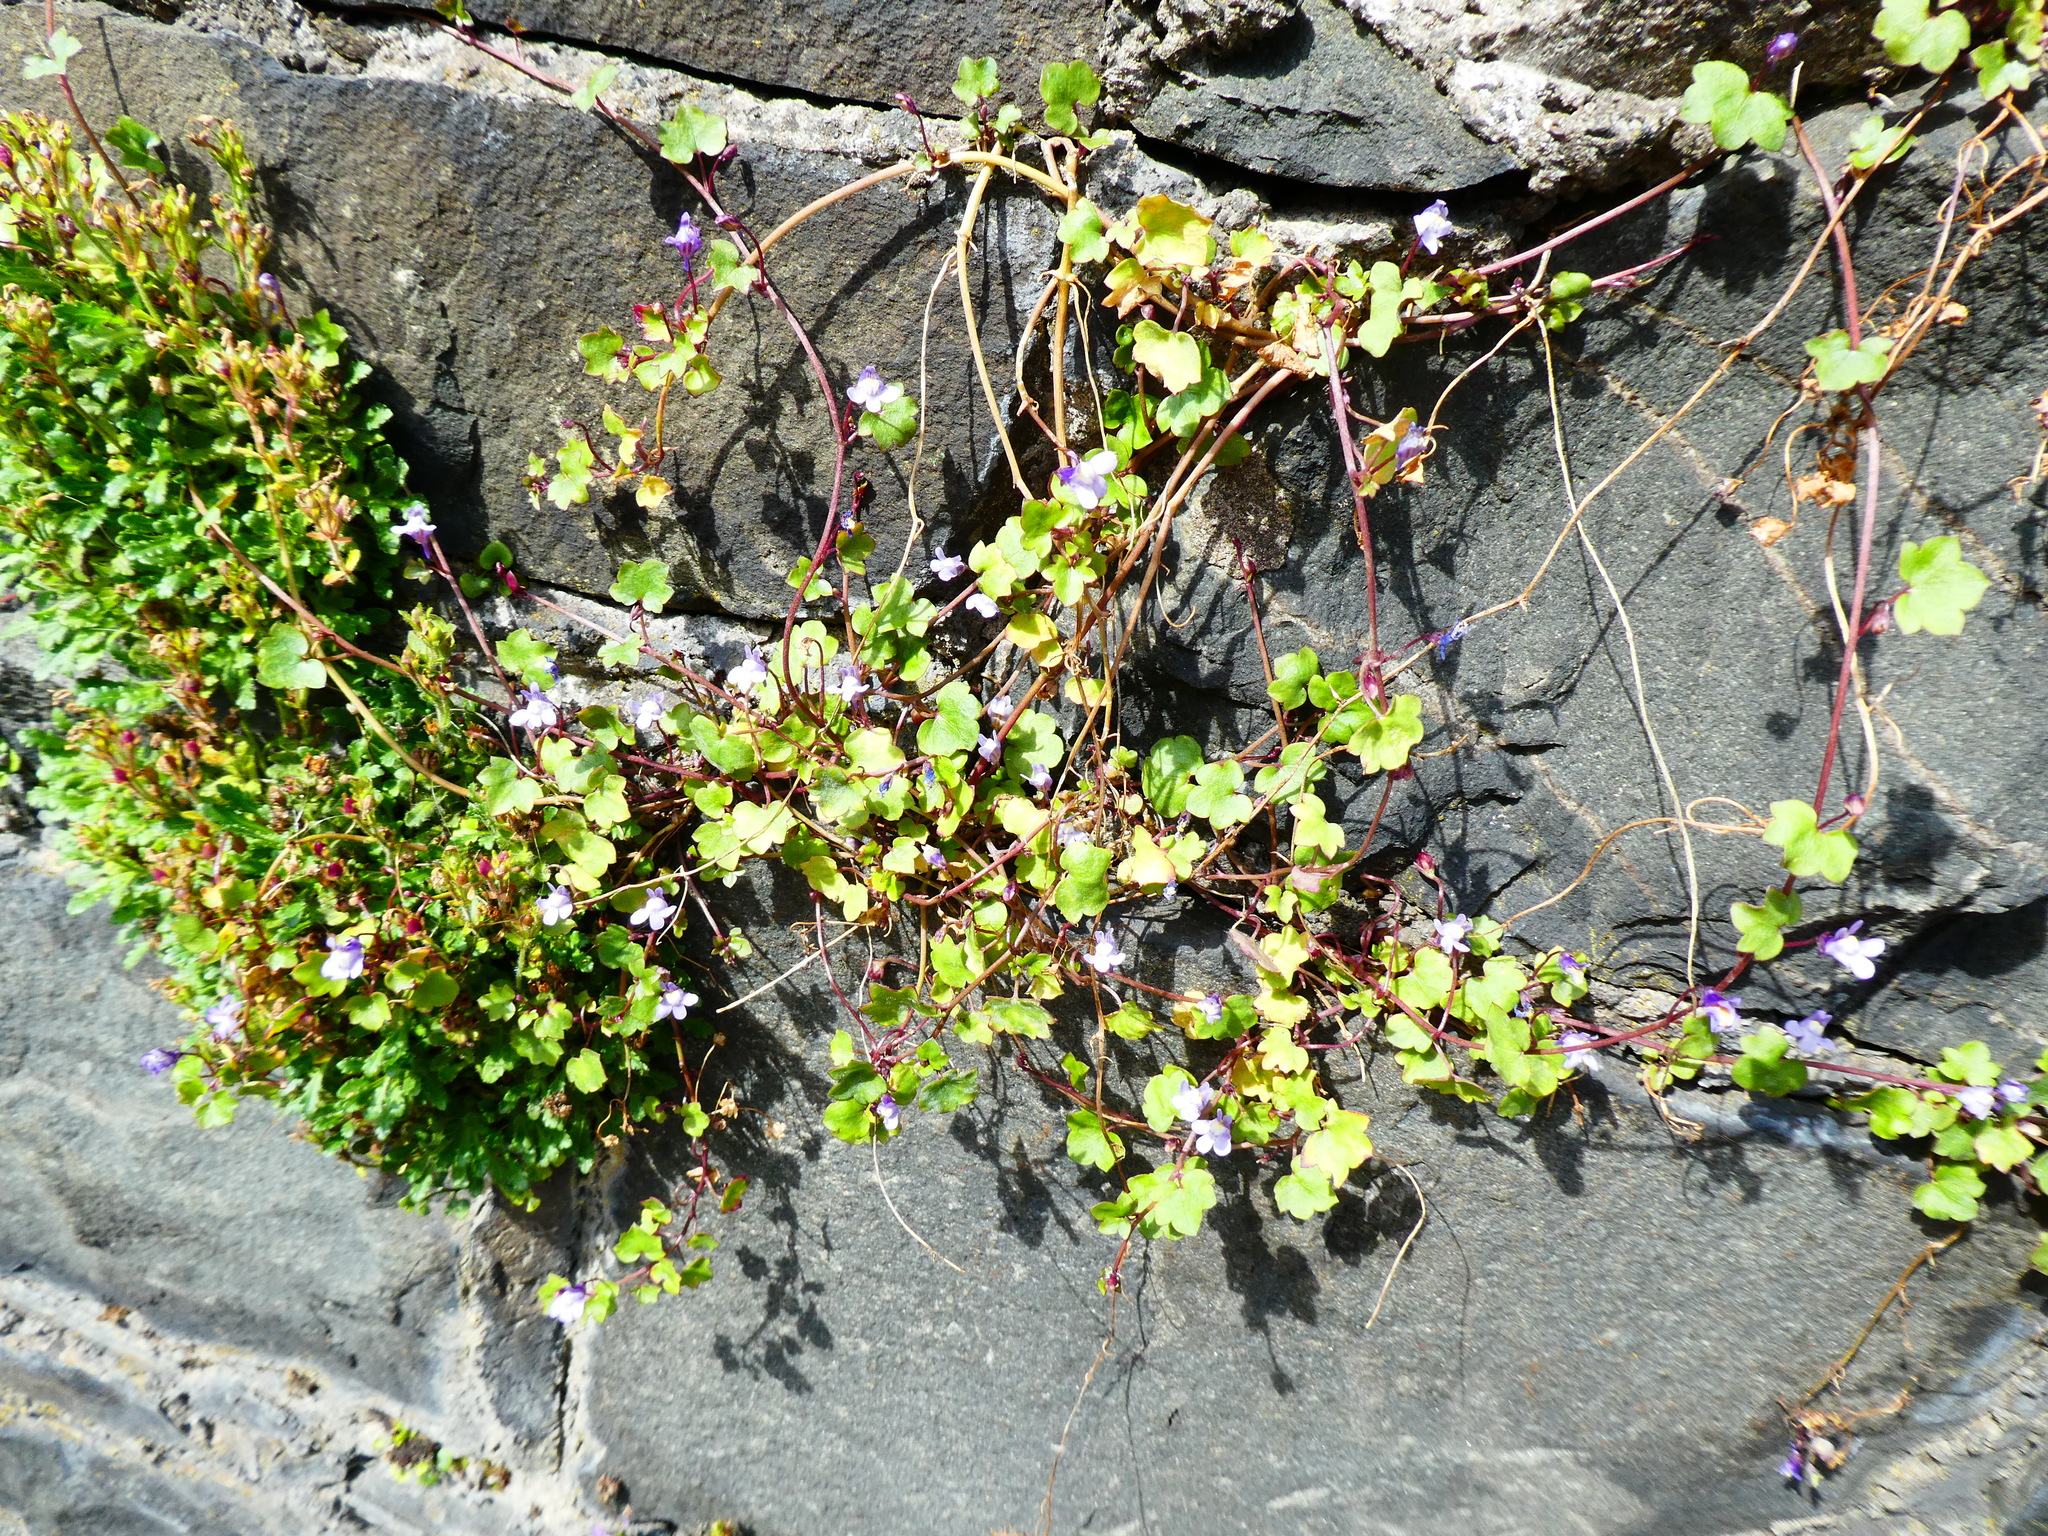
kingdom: Plantae
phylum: Tracheophyta
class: Magnoliopsida
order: Lamiales
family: Plantaginaceae
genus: Cymbalaria
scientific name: Cymbalaria muralis
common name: Ivy-leaved toadflax
